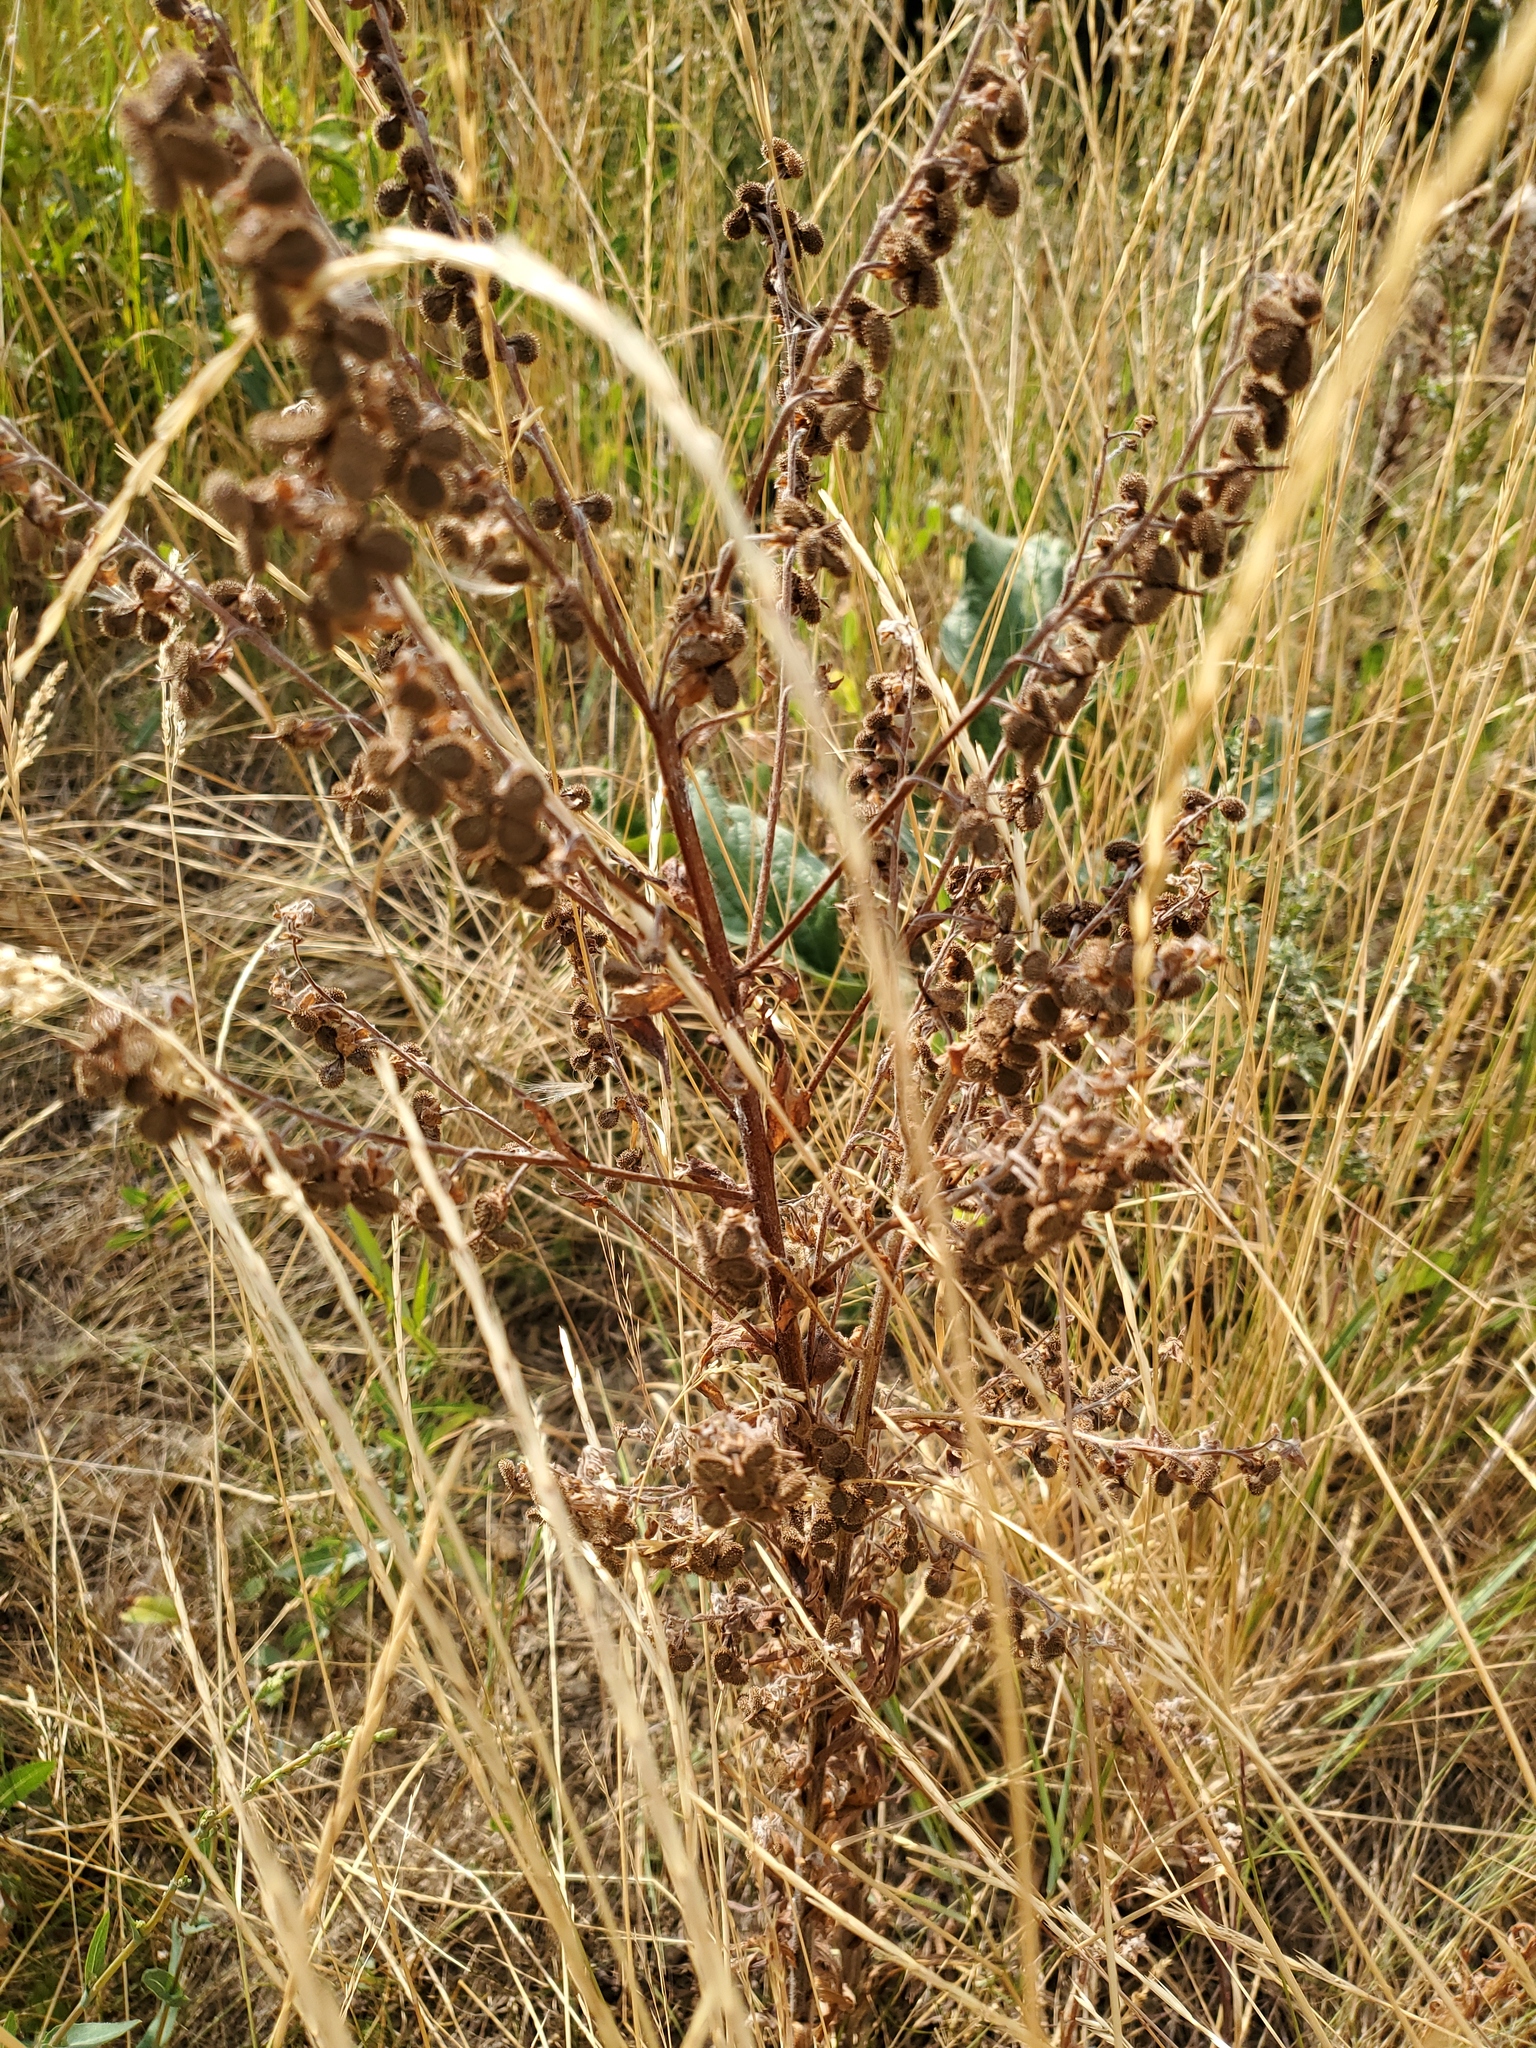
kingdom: Plantae
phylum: Tracheophyta
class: Magnoliopsida
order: Boraginales
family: Boraginaceae
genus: Cynoglossum
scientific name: Cynoglossum officinale
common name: Hound's-tongue
